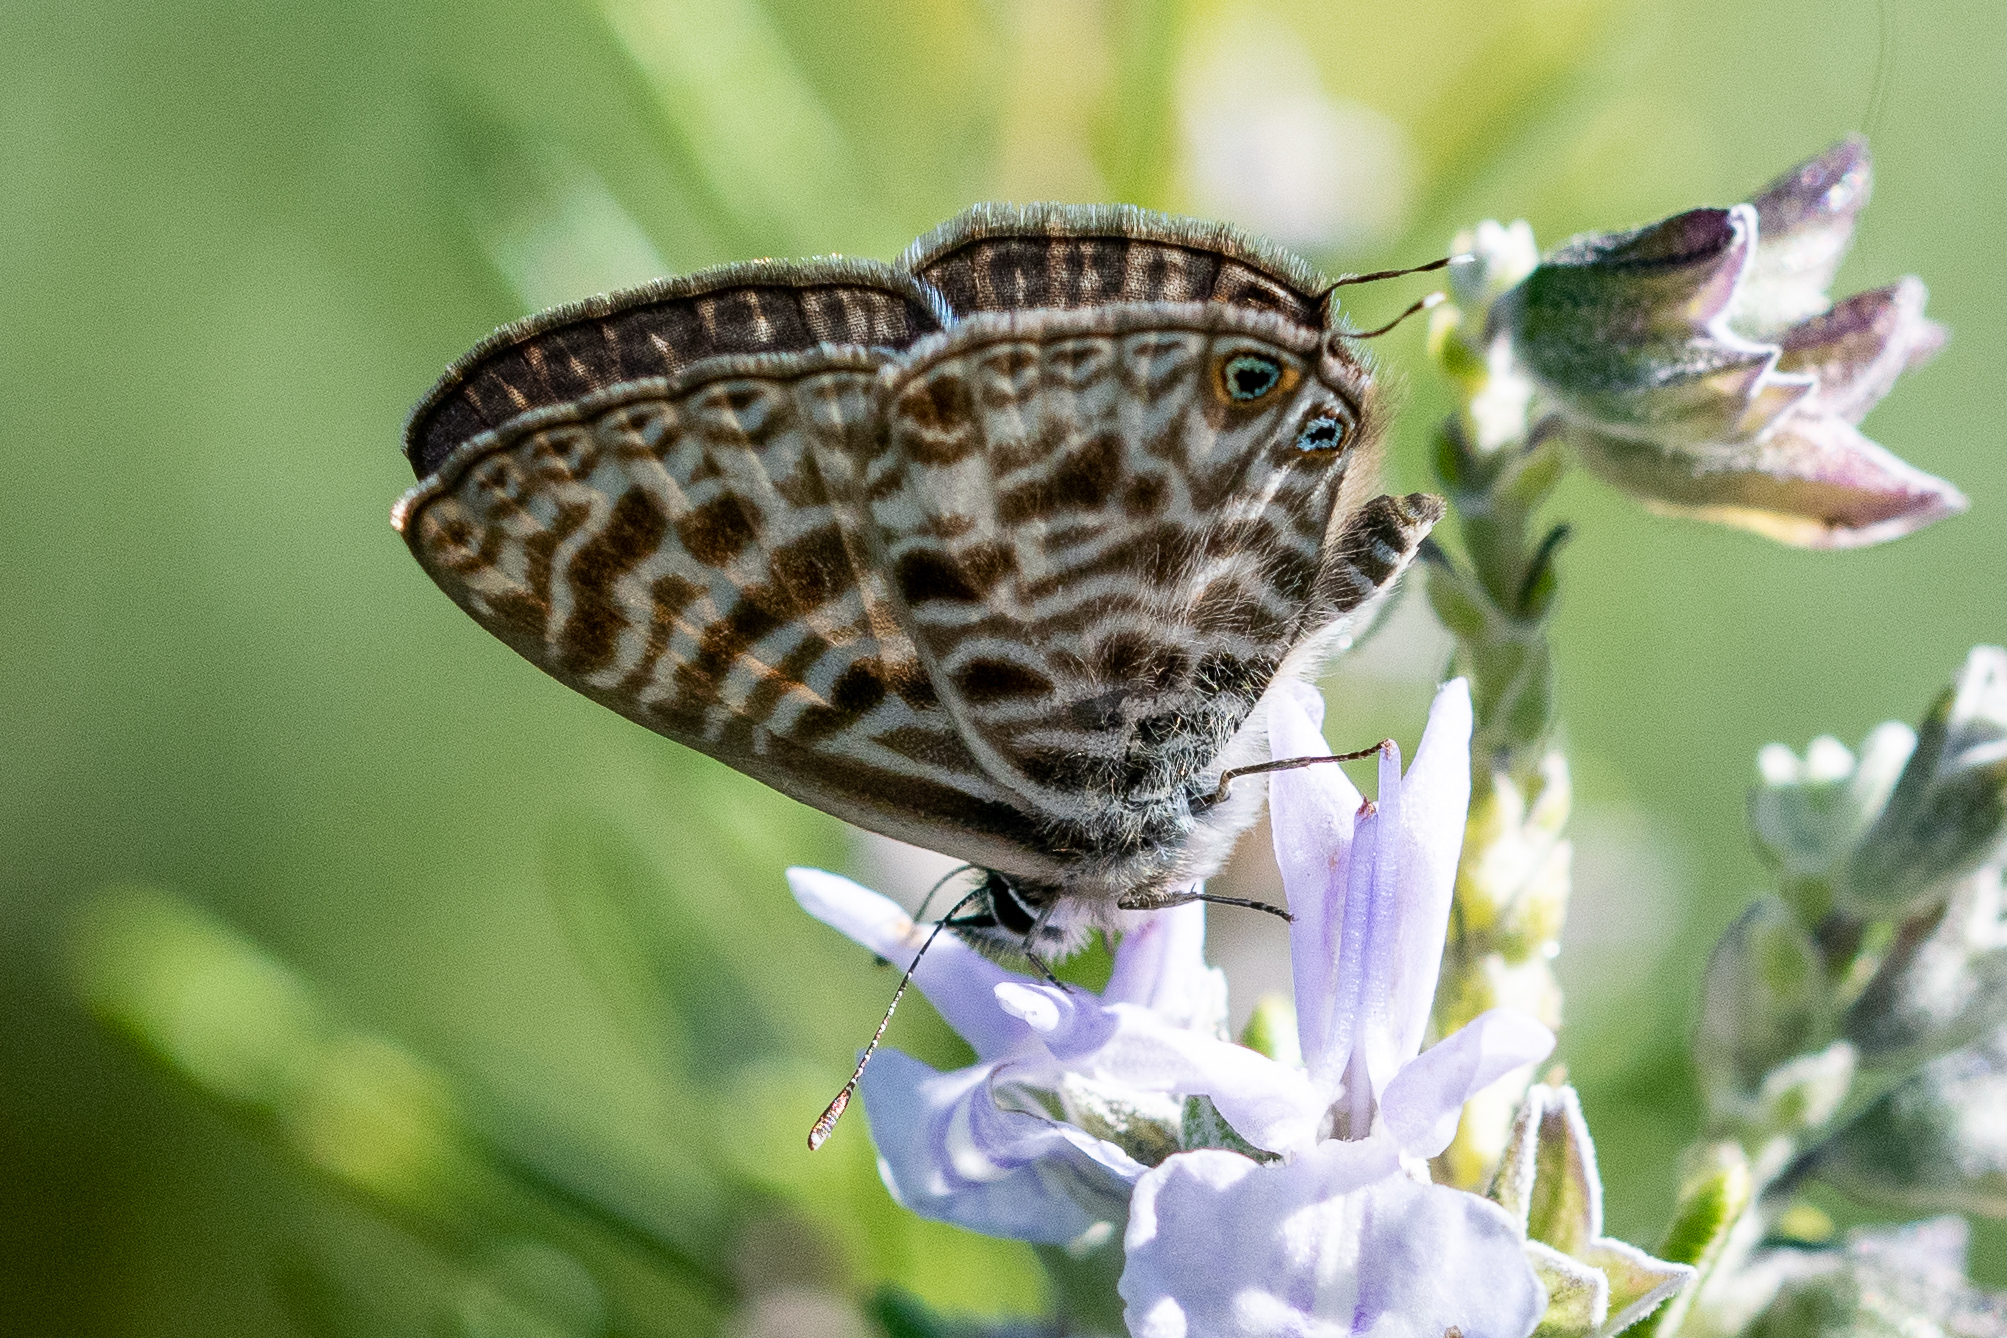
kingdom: Animalia
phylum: Arthropoda
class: Insecta
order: Lepidoptera
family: Lycaenidae
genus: Leptotes
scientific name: Leptotes
